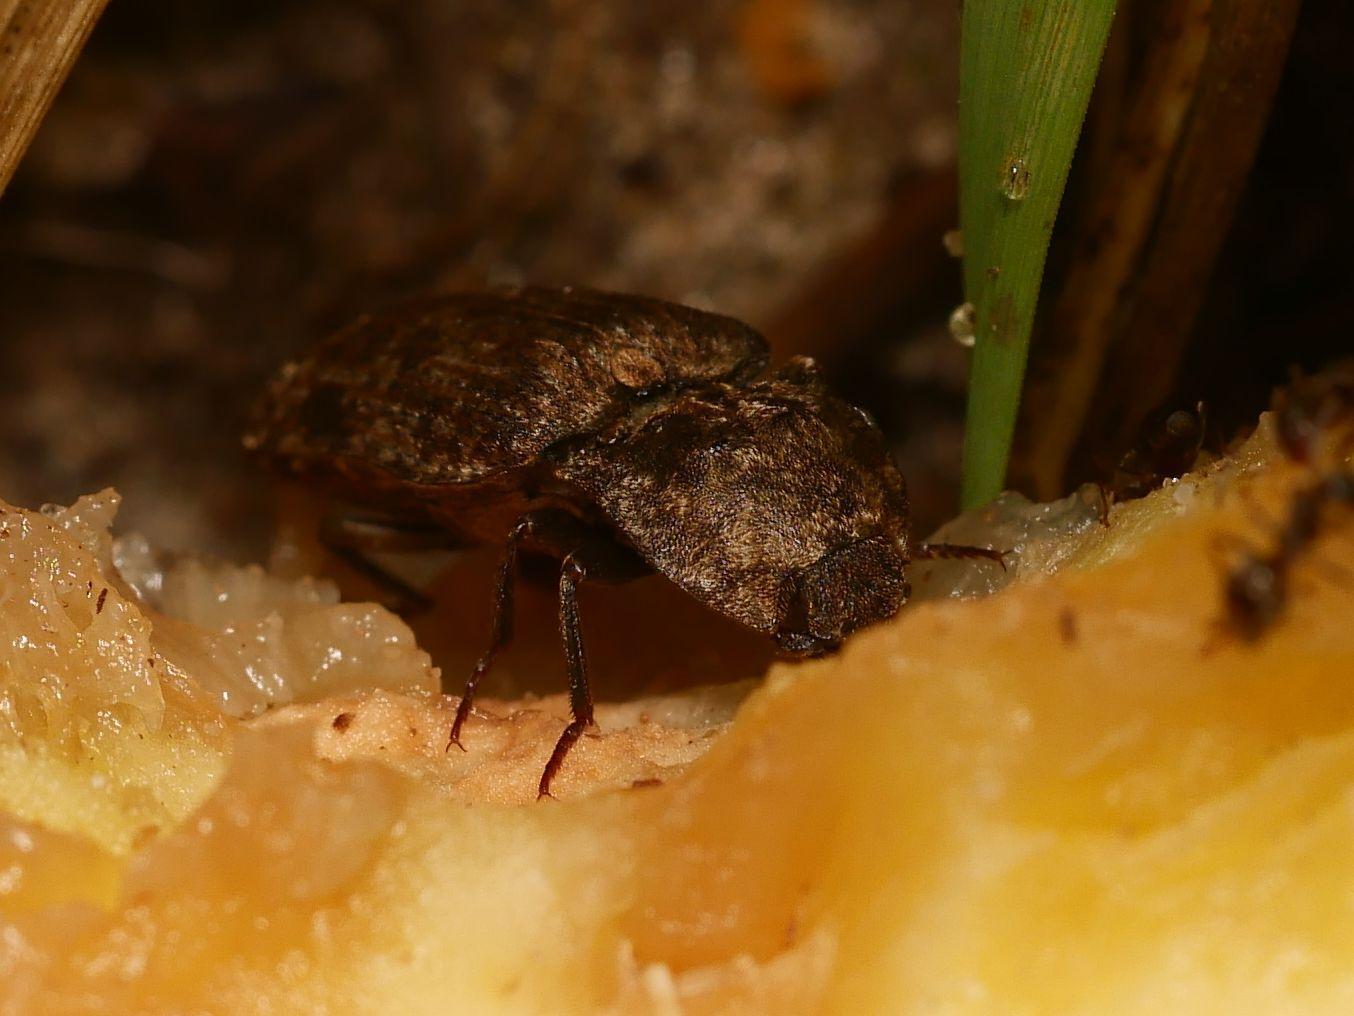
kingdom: Animalia
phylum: Arthropoda
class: Insecta
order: Coleoptera
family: Elateridae
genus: Agrypnus
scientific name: Agrypnus murinus
